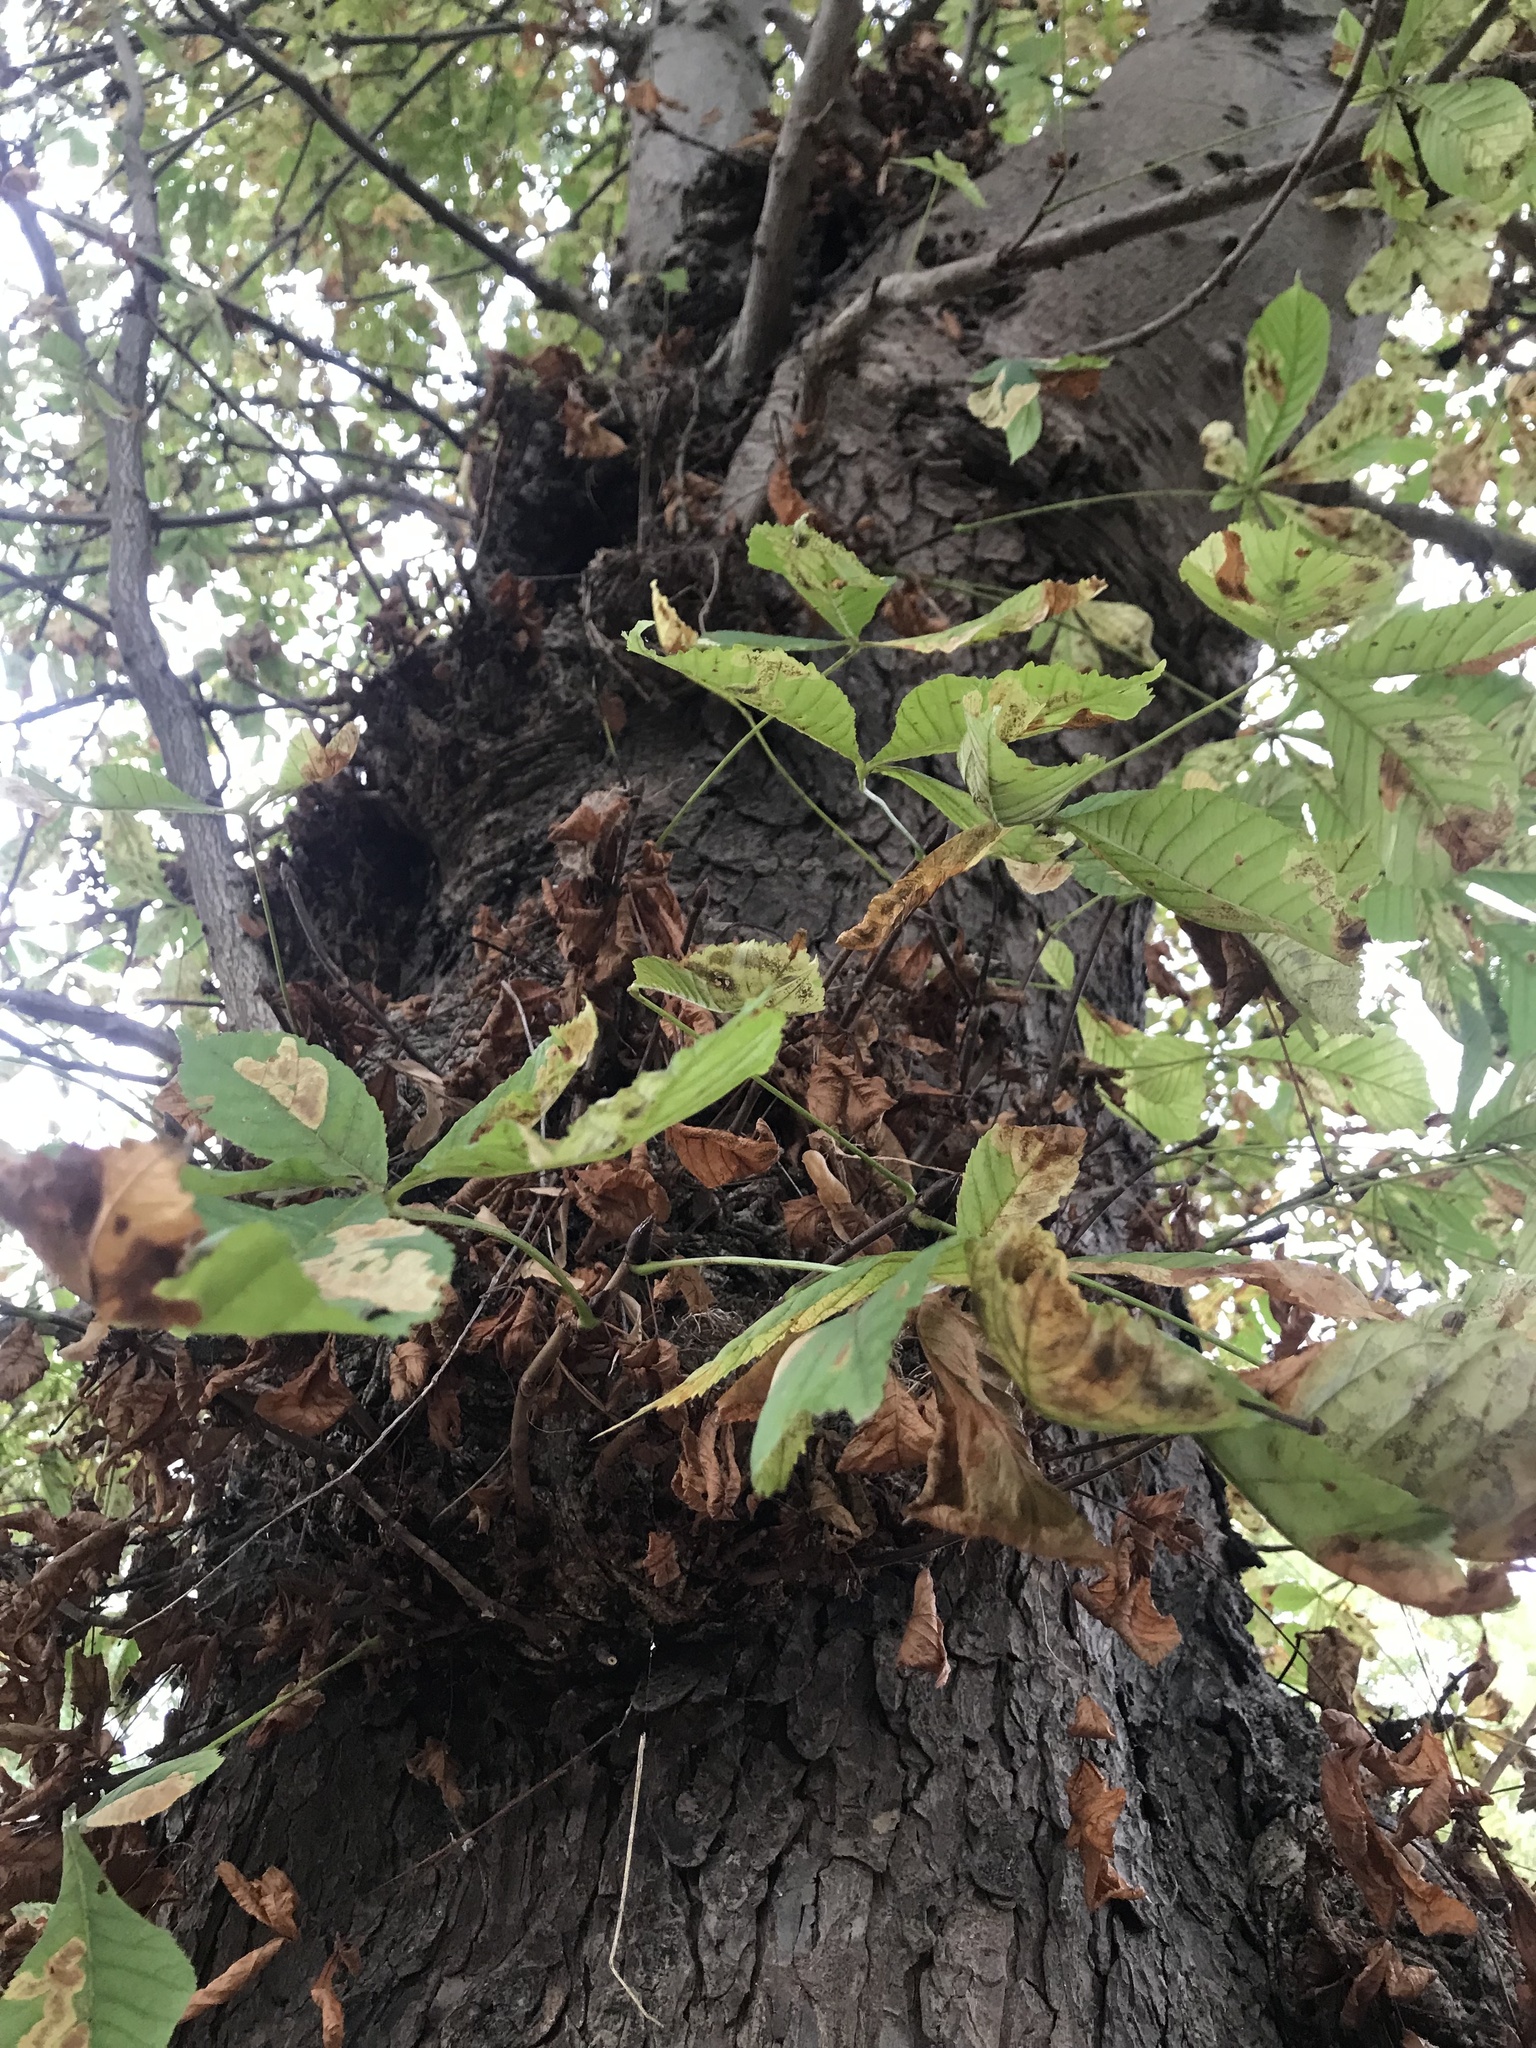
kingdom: Plantae
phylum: Tracheophyta
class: Magnoliopsida
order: Sapindales
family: Sapindaceae
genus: Aesculus
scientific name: Aesculus hippocastanum
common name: Horse-chestnut
